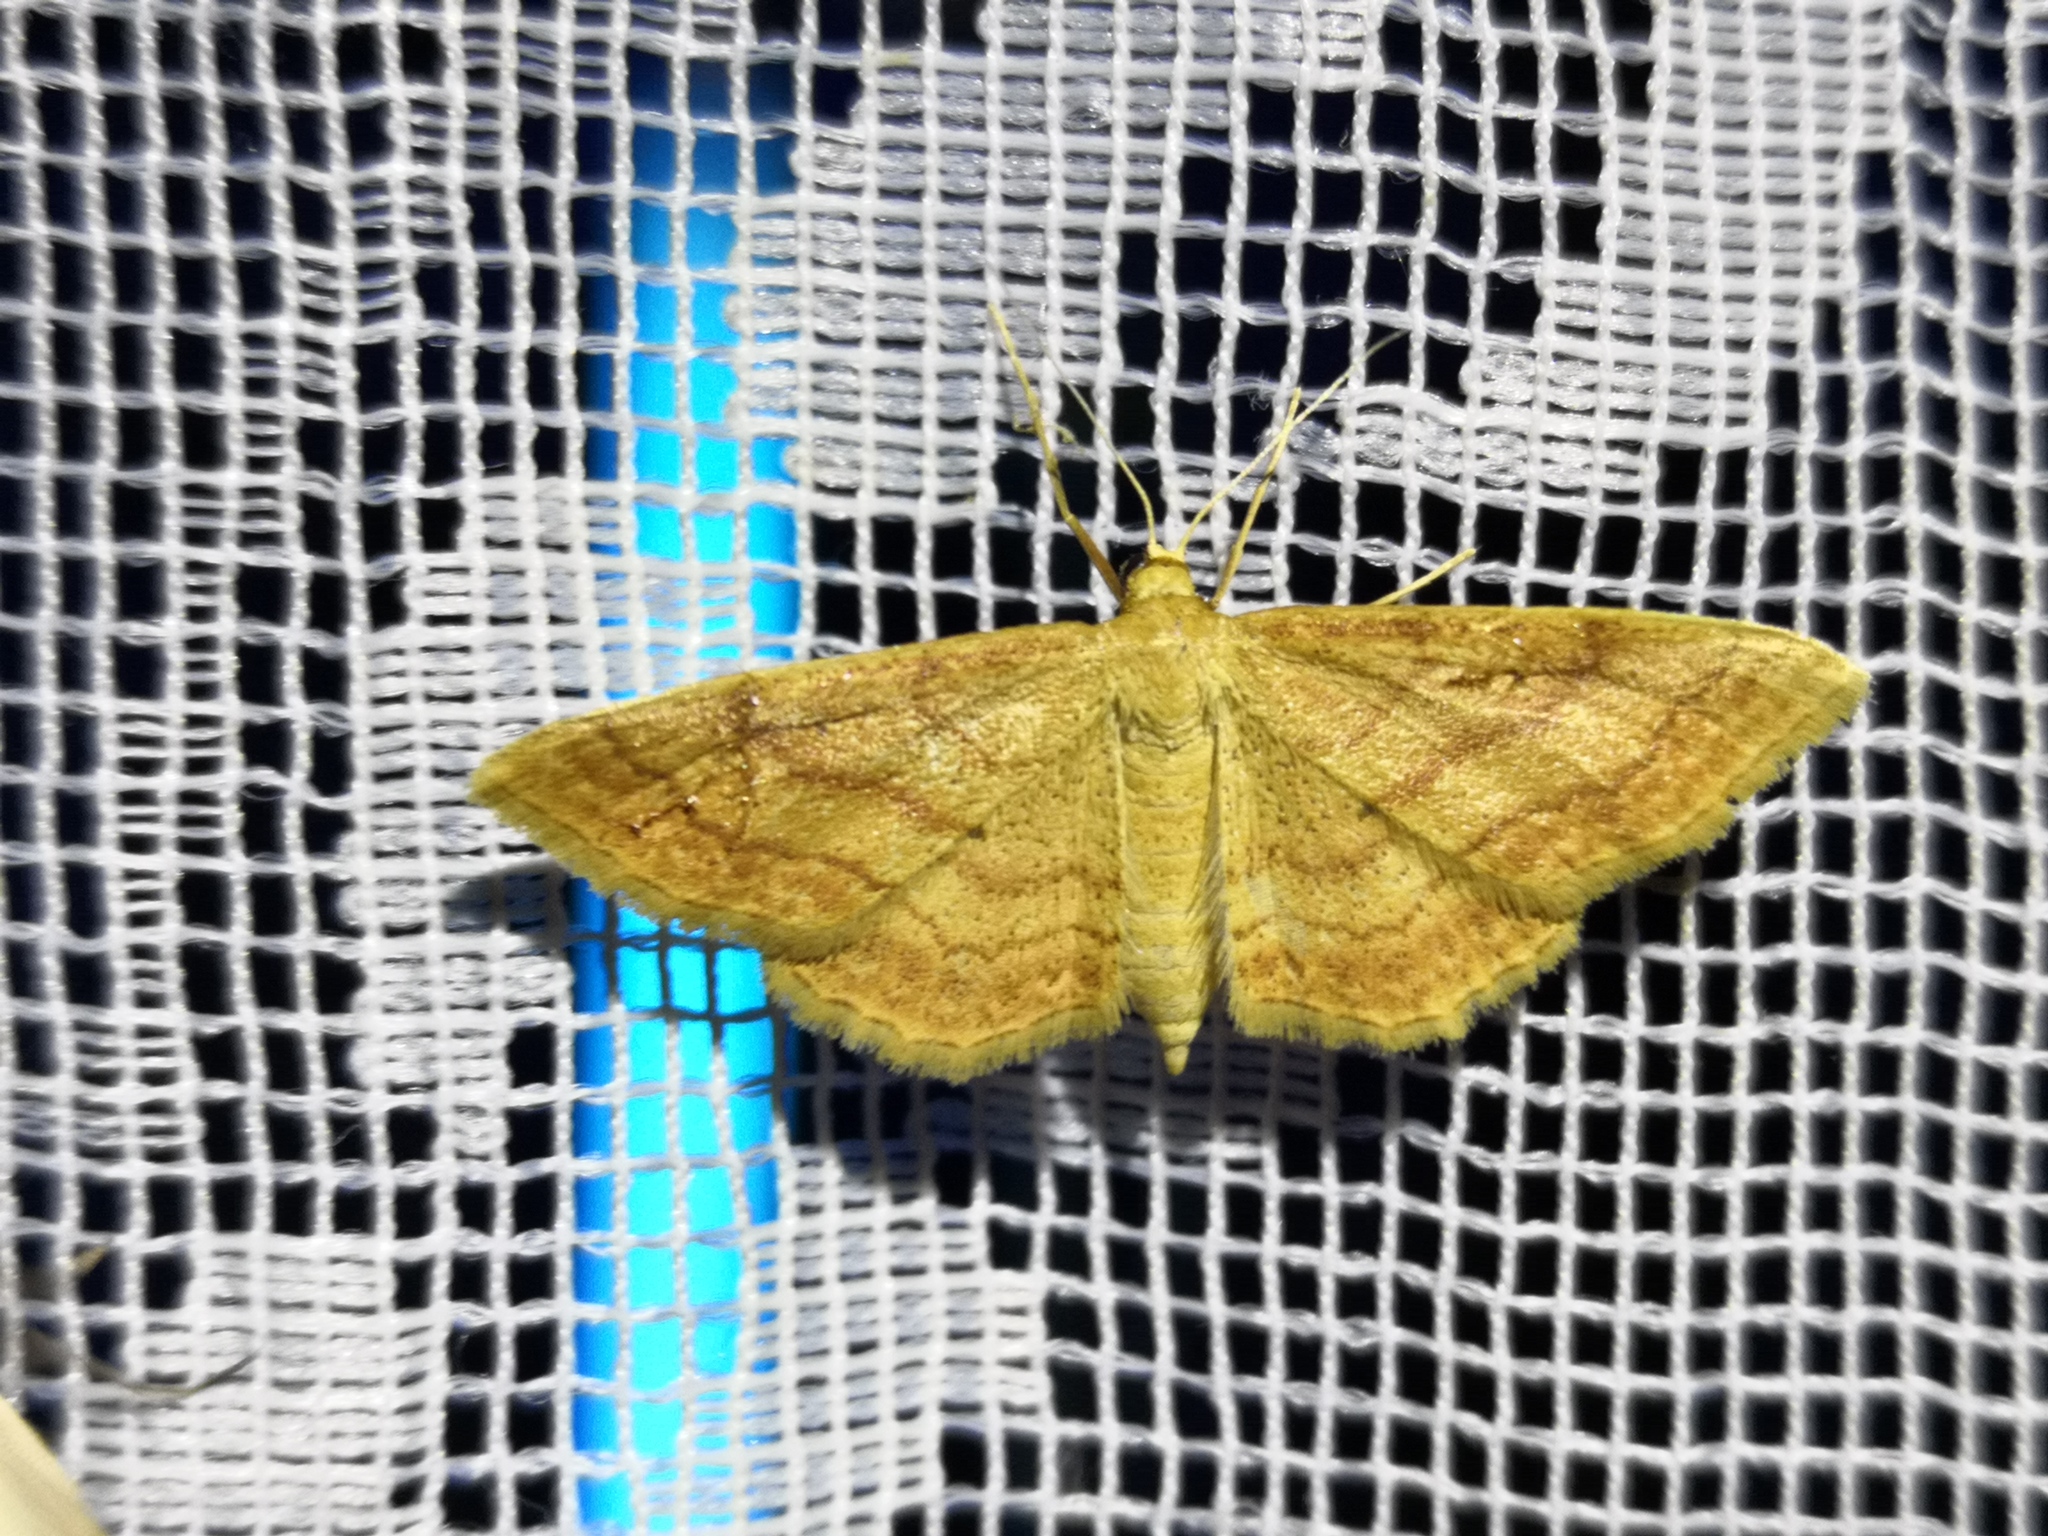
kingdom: Animalia
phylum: Arthropoda
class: Insecta
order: Lepidoptera
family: Geometridae
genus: Idaea
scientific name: Idaea rufaria
